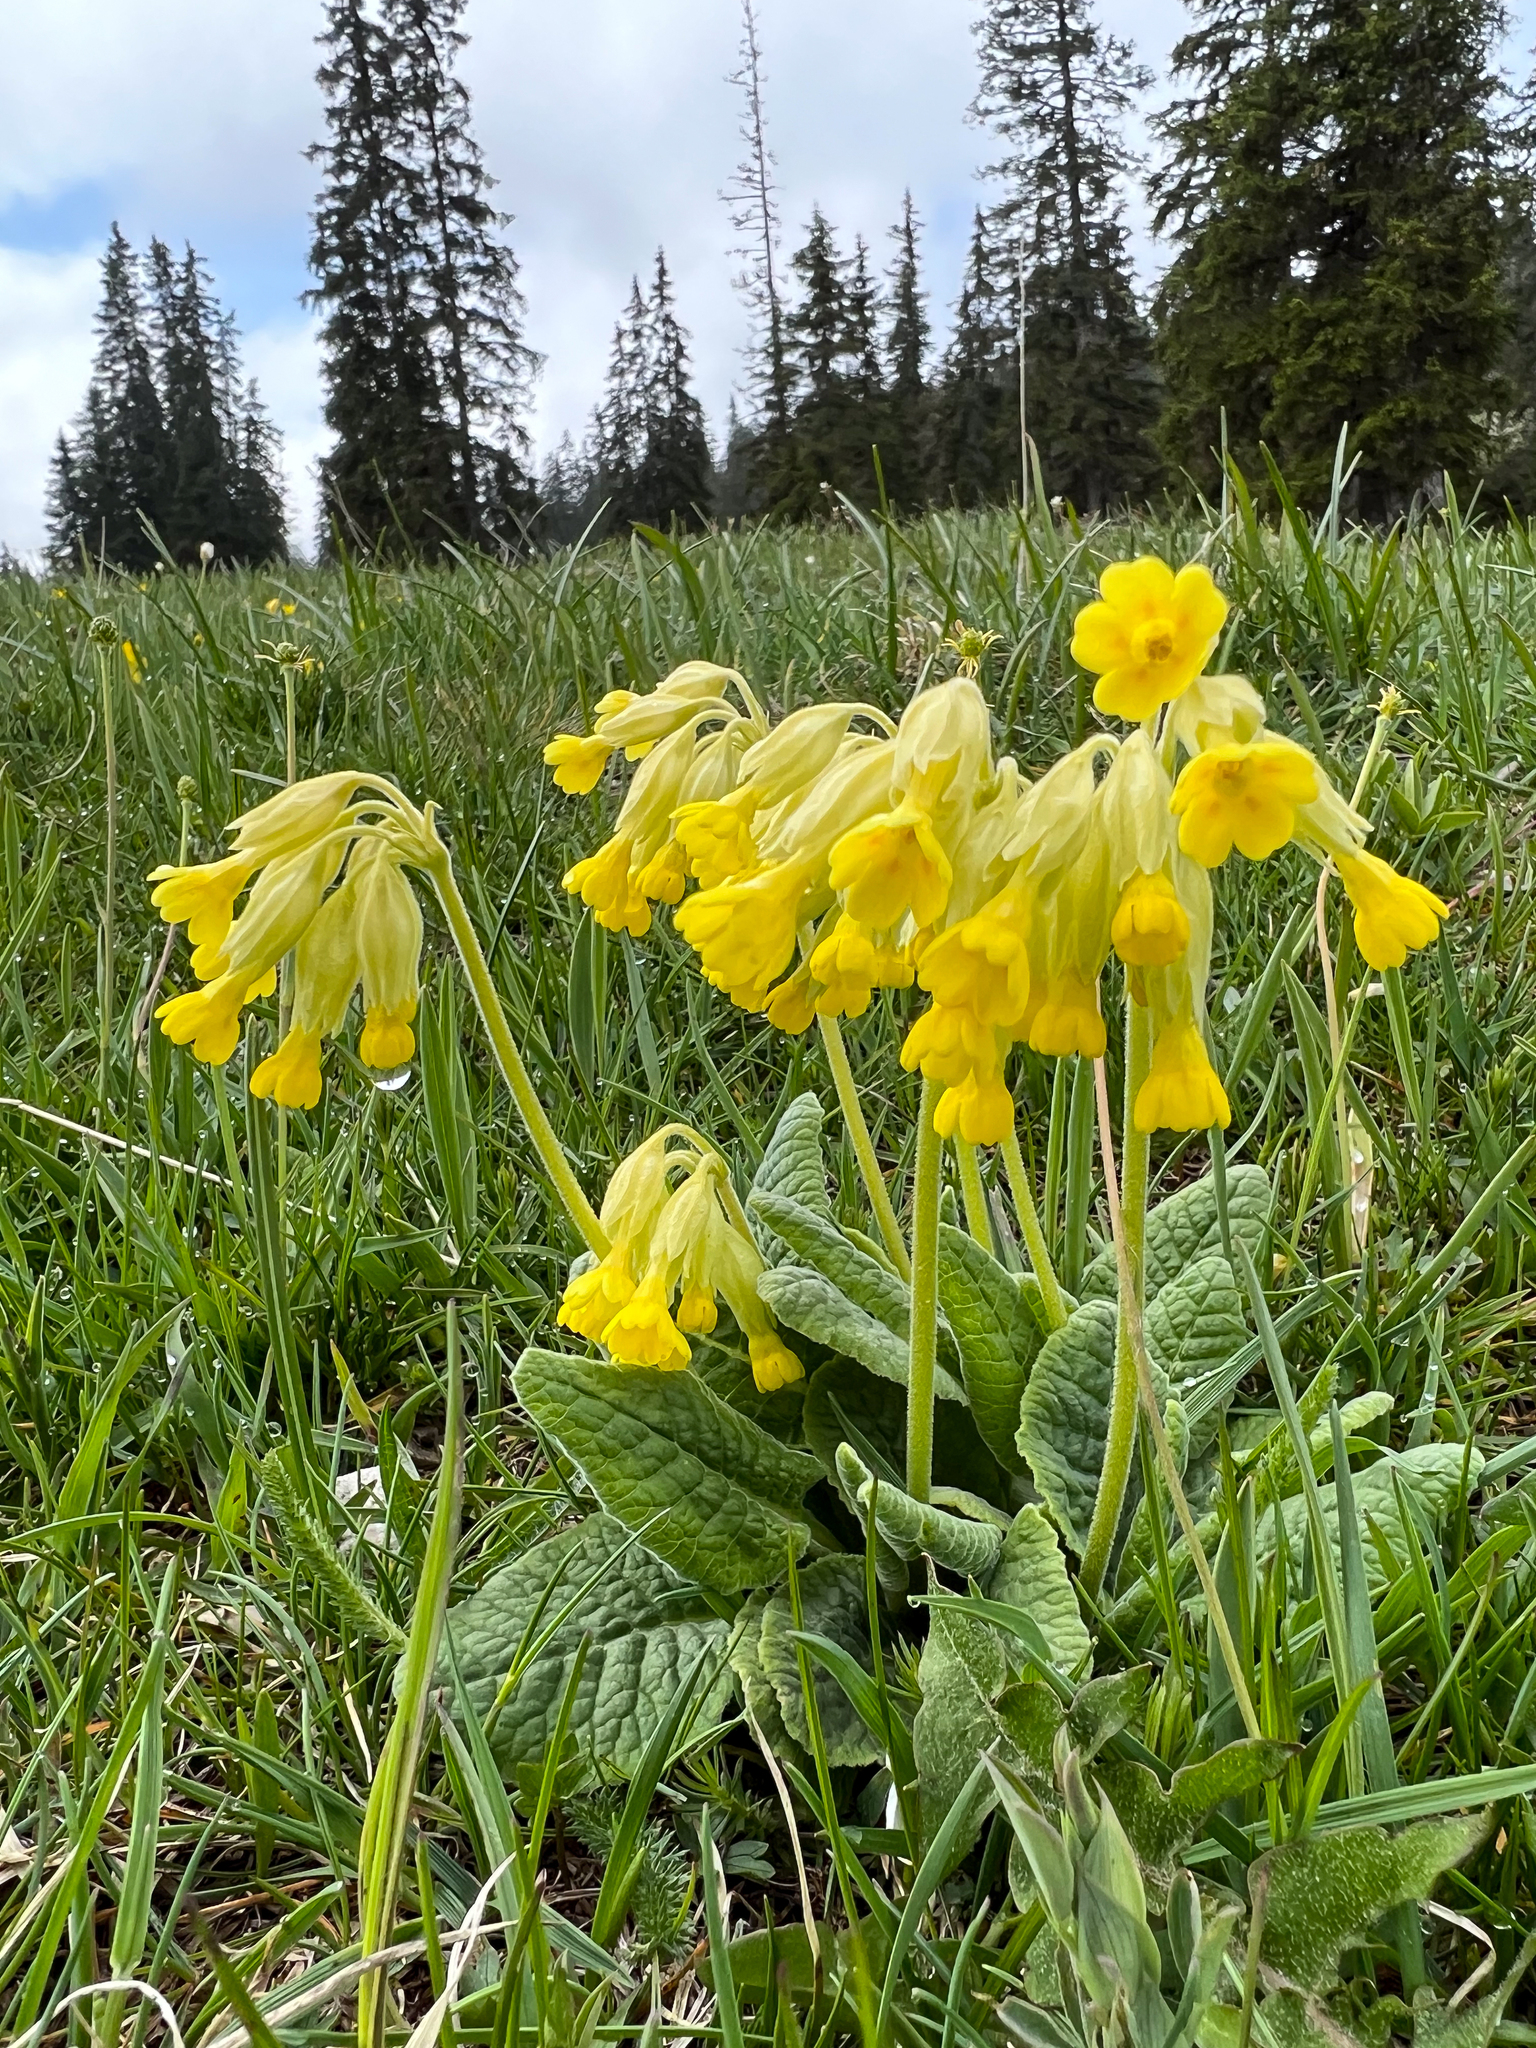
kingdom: Plantae
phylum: Tracheophyta
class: Magnoliopsida
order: Ericales
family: Primulaceae
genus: Primula
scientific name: Primula veris
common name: Cowslip
